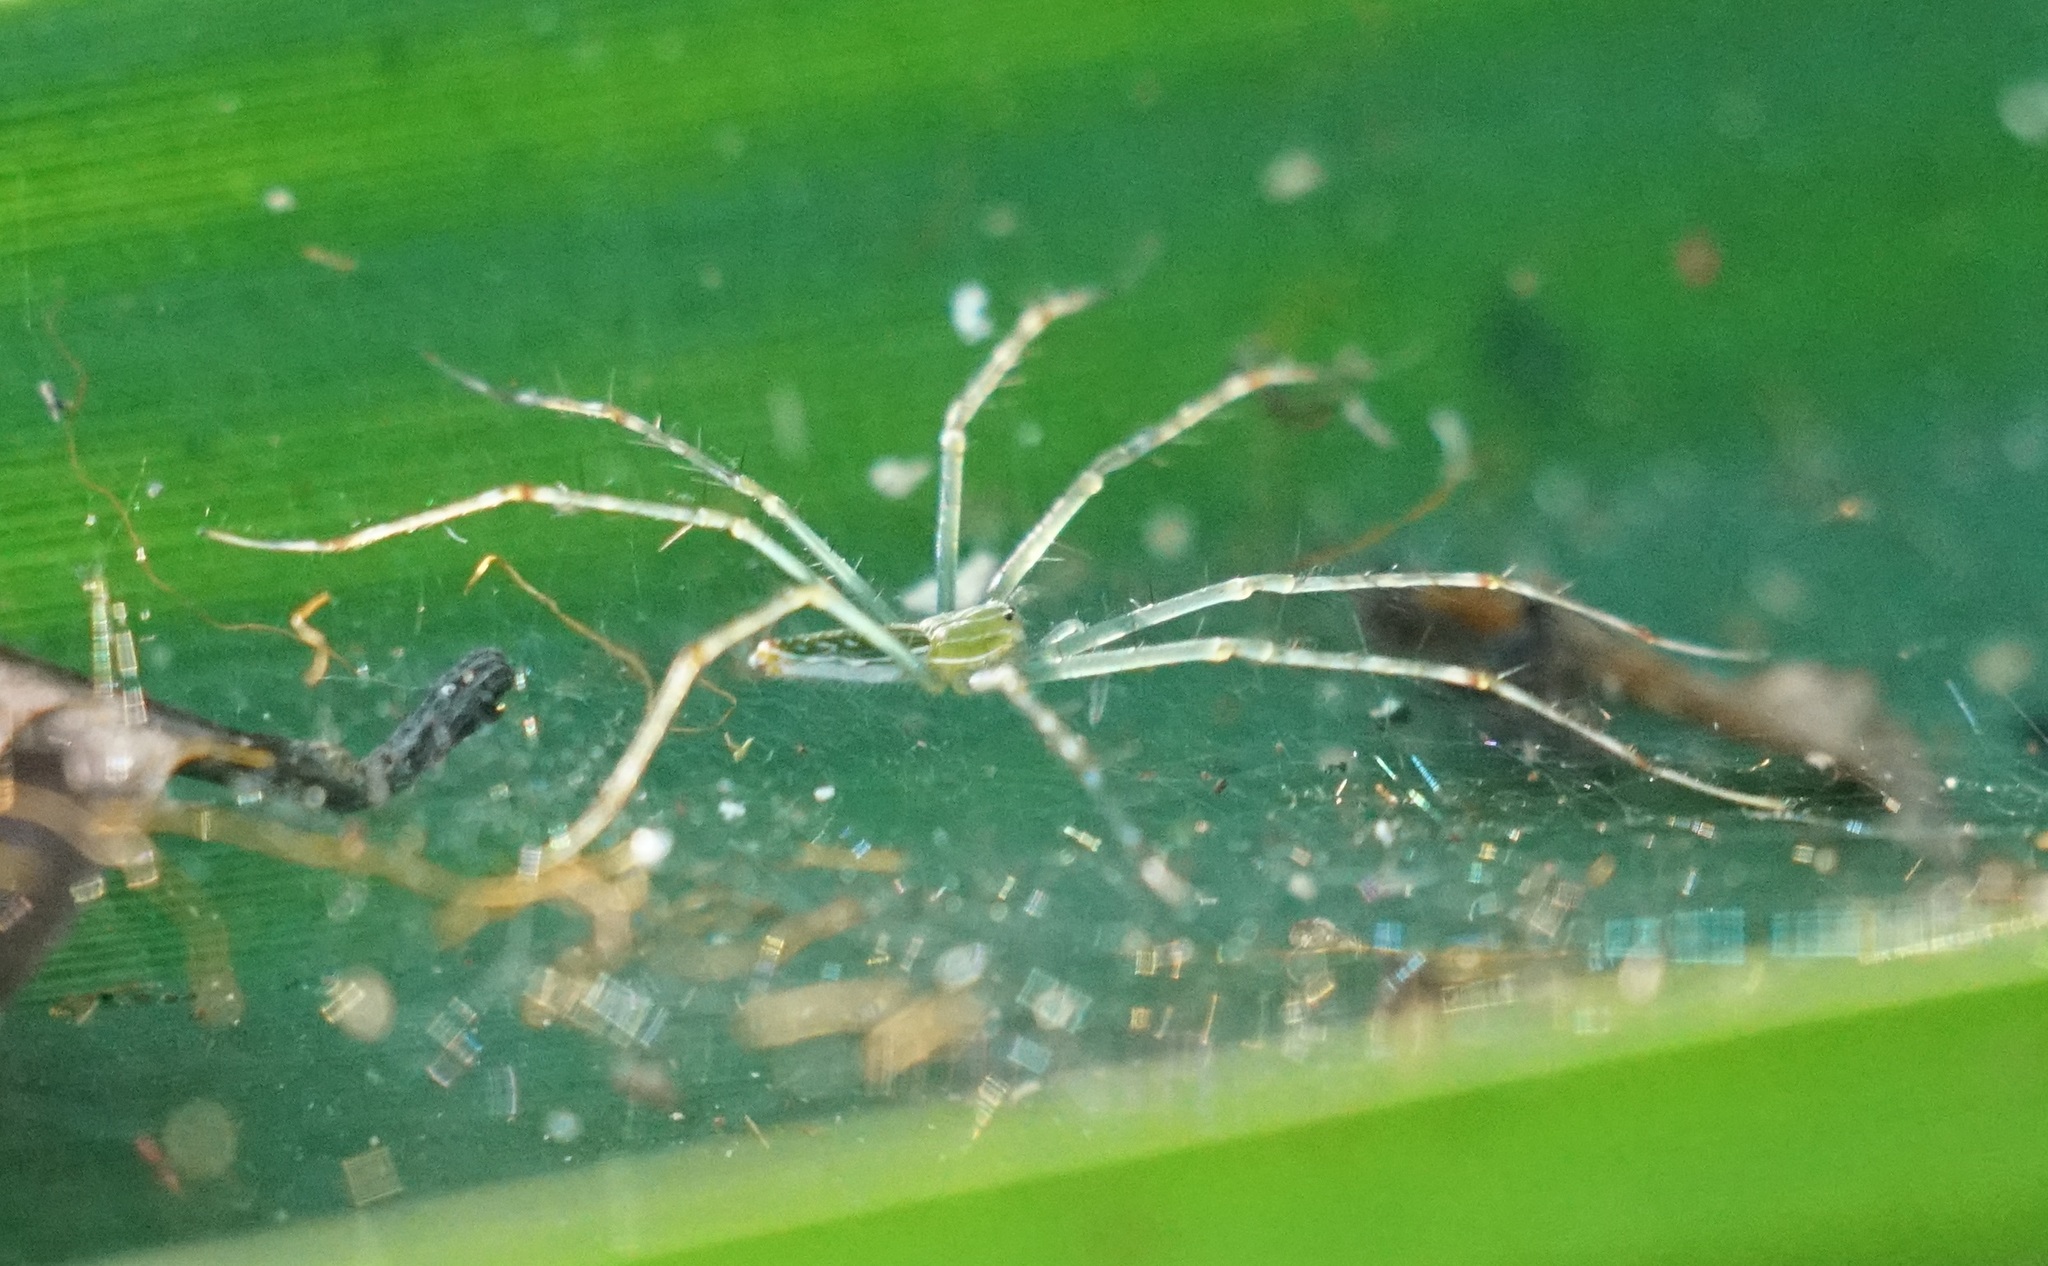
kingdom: Animalia
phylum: Arthropoda
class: Arachnida
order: Araneae
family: Pisauridae
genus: Hygropoda
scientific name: Hygropoda lineata
